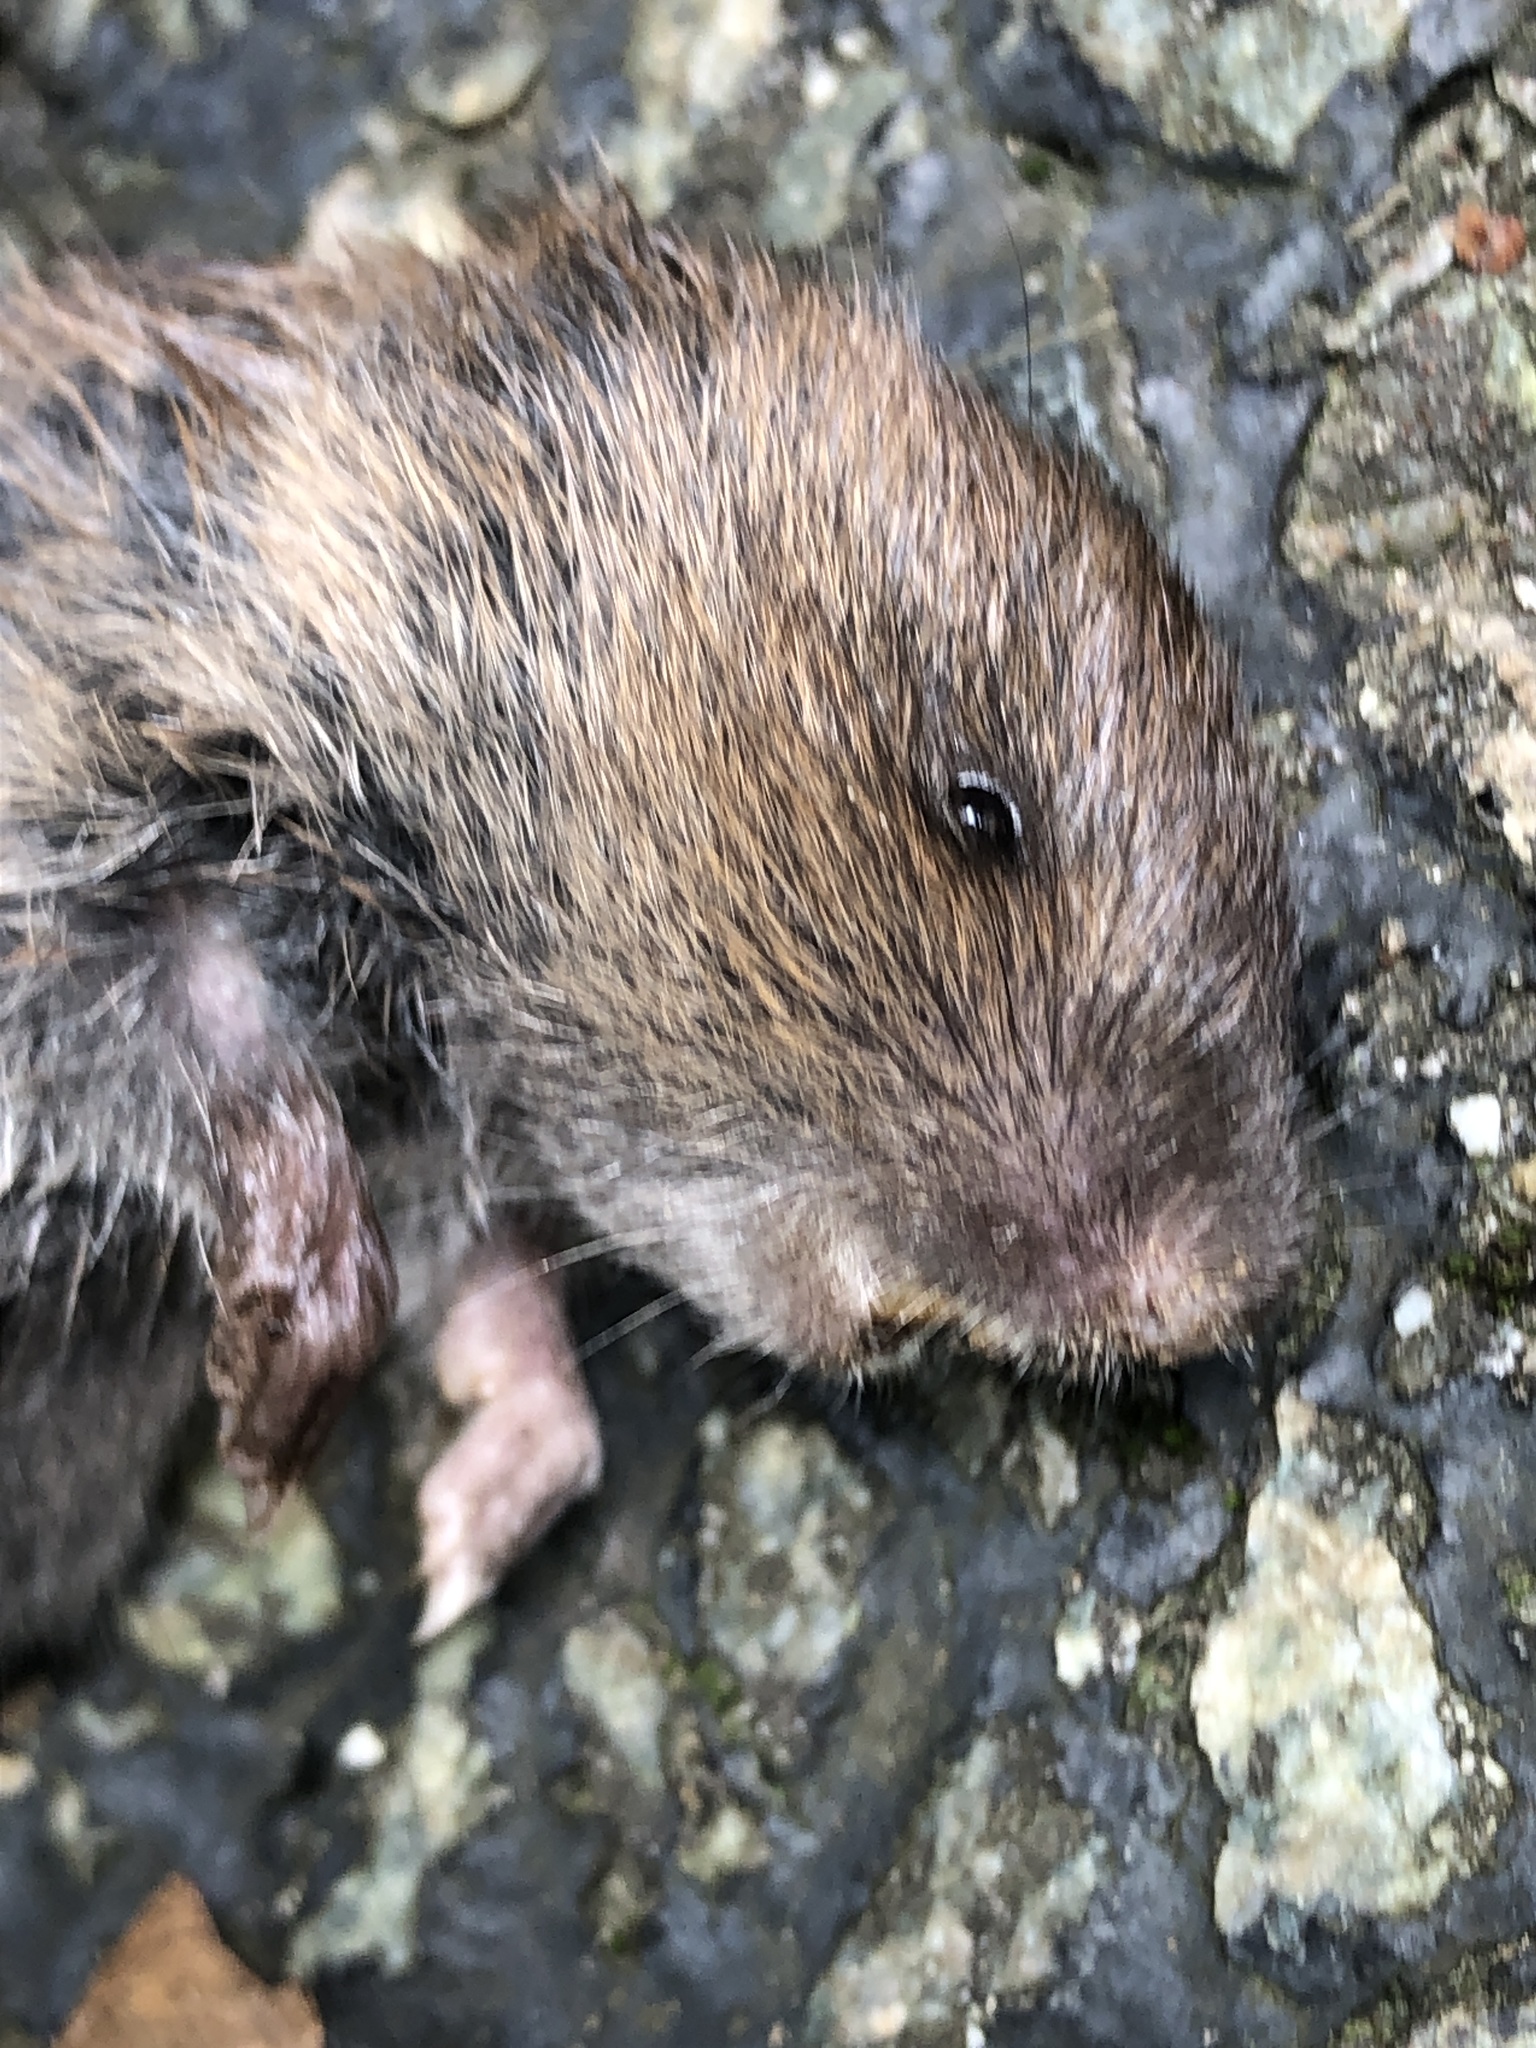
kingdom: Animalia
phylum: Chordata
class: Mammalia
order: Rodentia
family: Cricetidae
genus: Microtus
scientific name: Microtus pennsylvanicus
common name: Meadow vole
